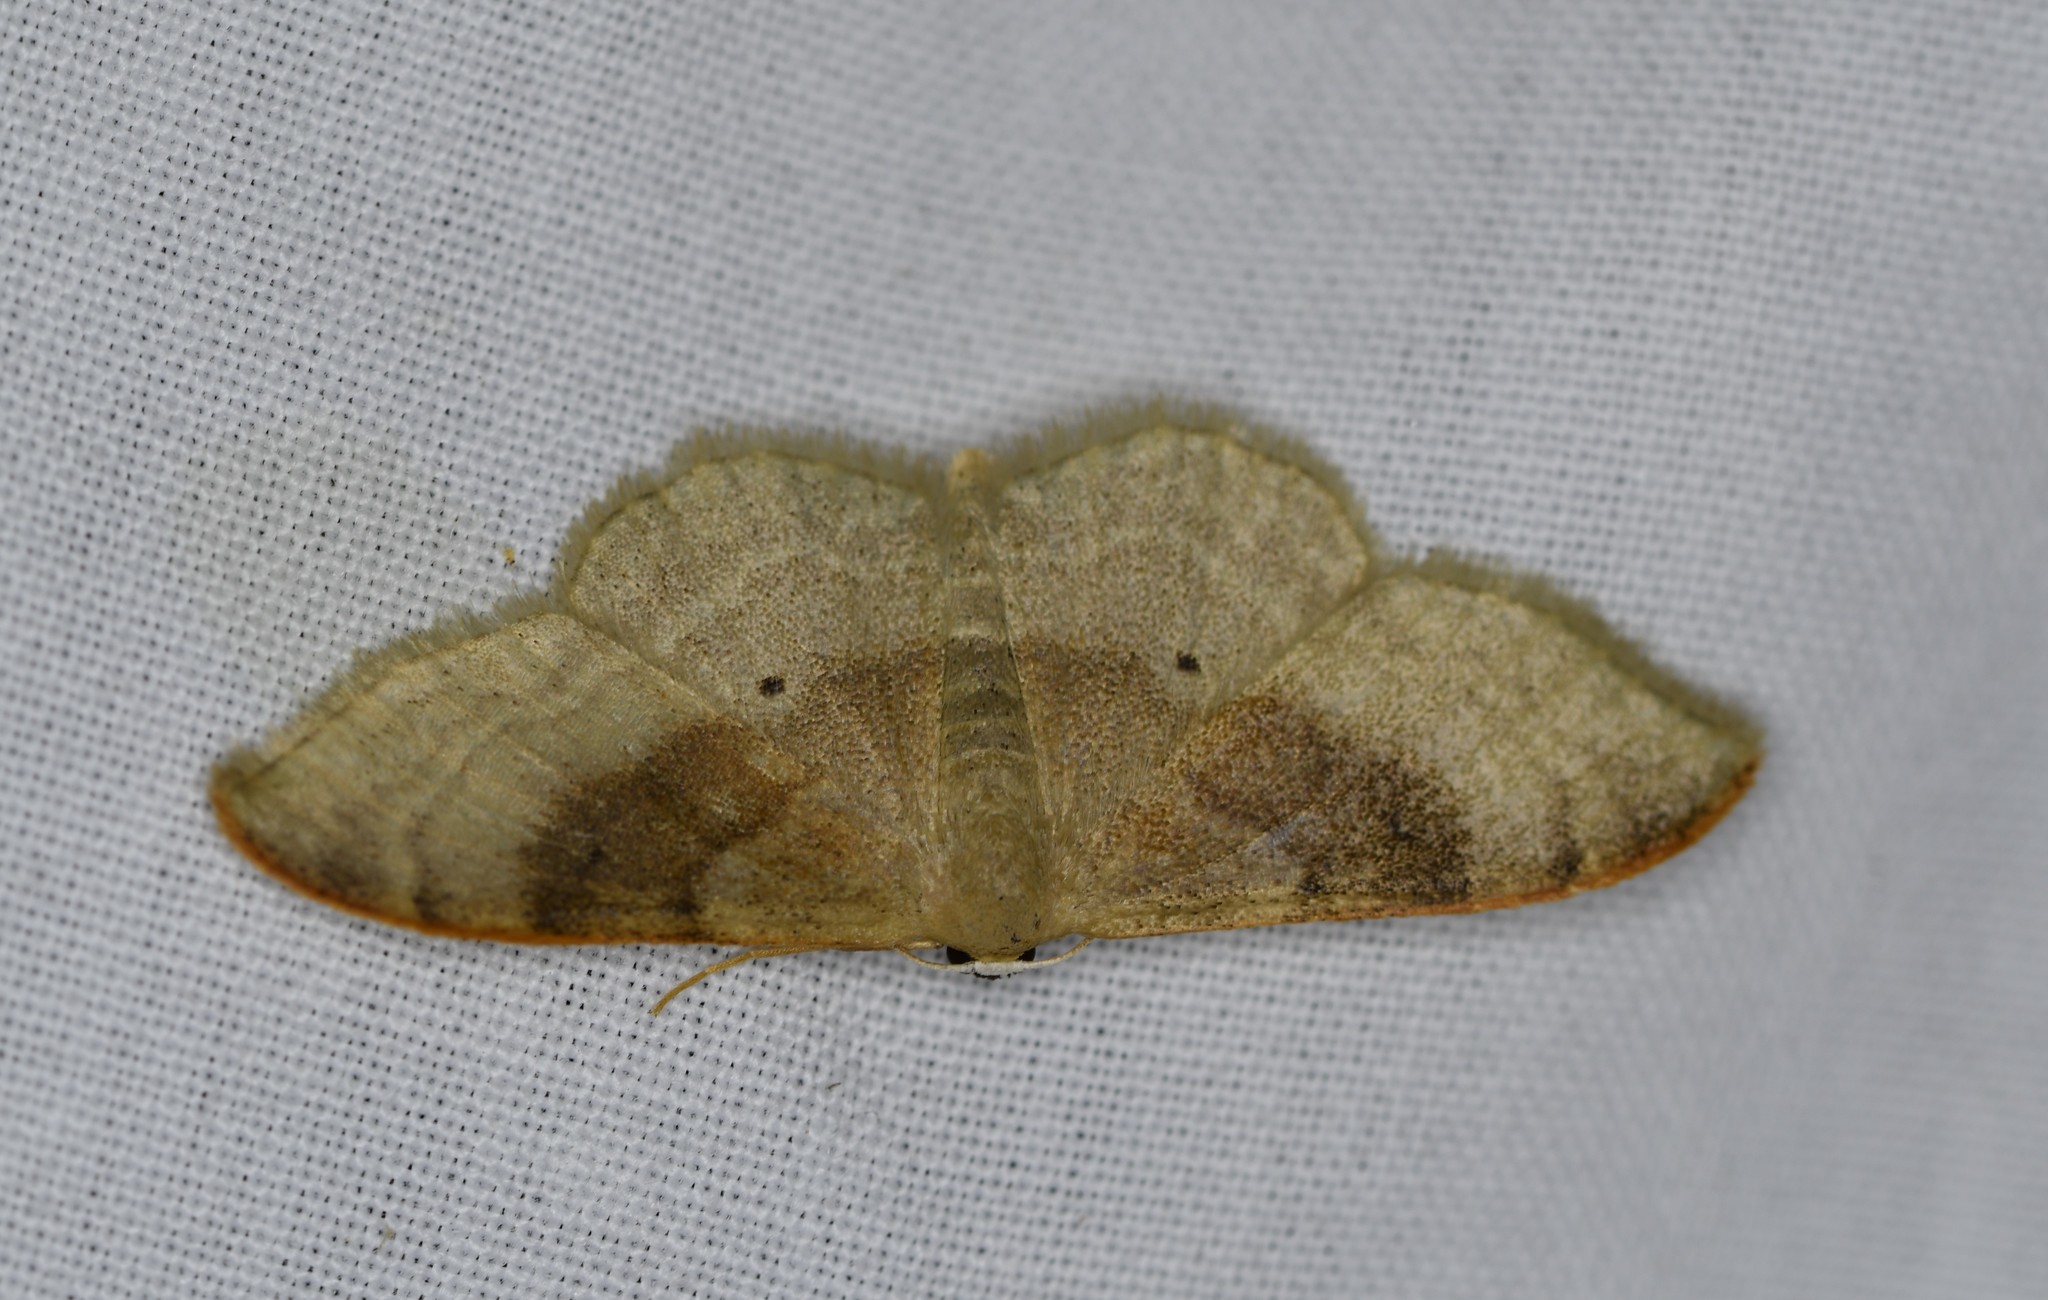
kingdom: Animalia
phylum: Arthropoda
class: Insecta
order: Lepidoptera
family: Geometridae
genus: Idaea
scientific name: Idaea degeneraria
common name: Portland ribbon wave
